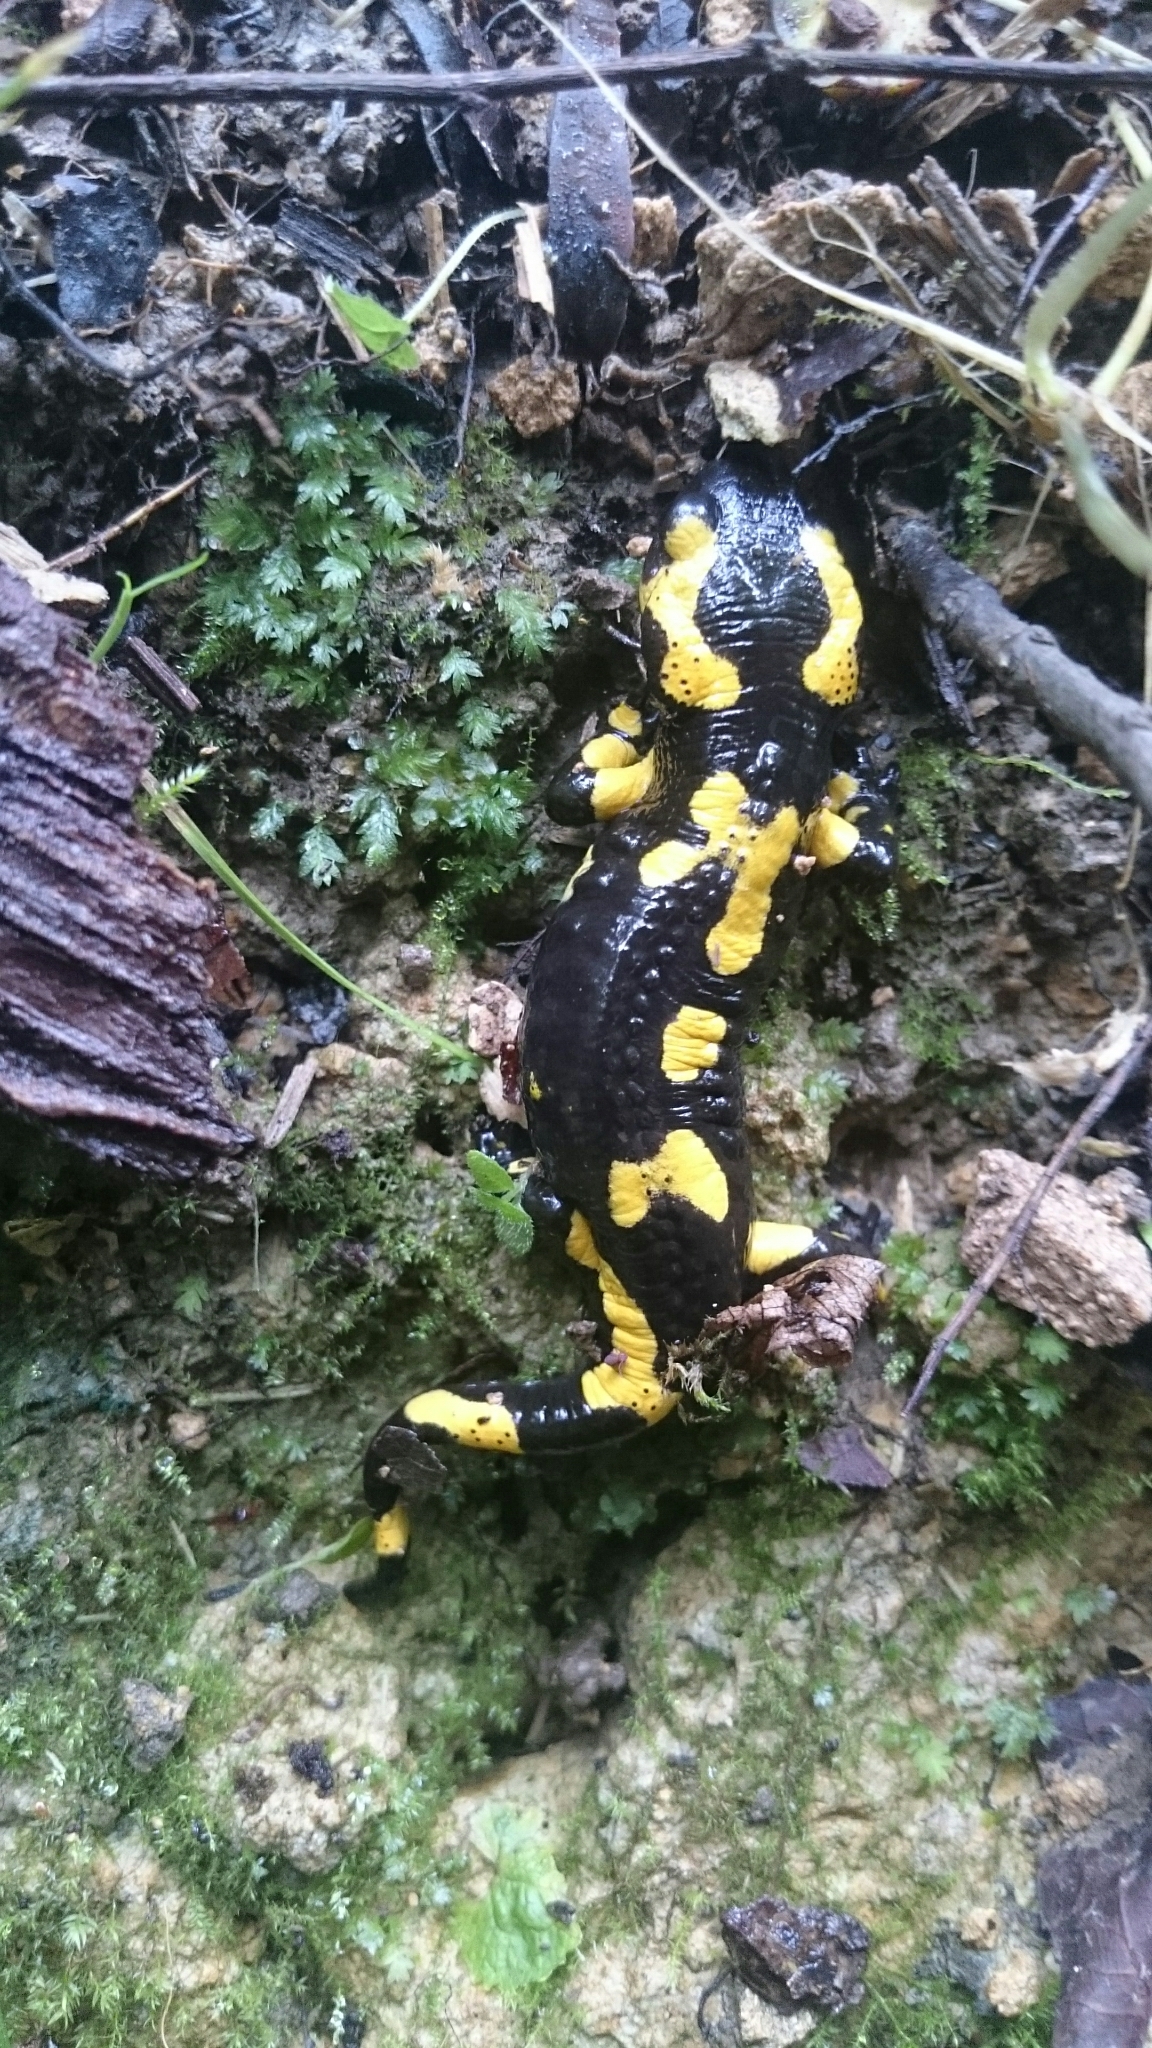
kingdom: Animalia
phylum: Chordata
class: Amphibia
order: Caudata
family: Salamandridae
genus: Salamandra
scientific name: Salamandra salamandra
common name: Fire salamander
